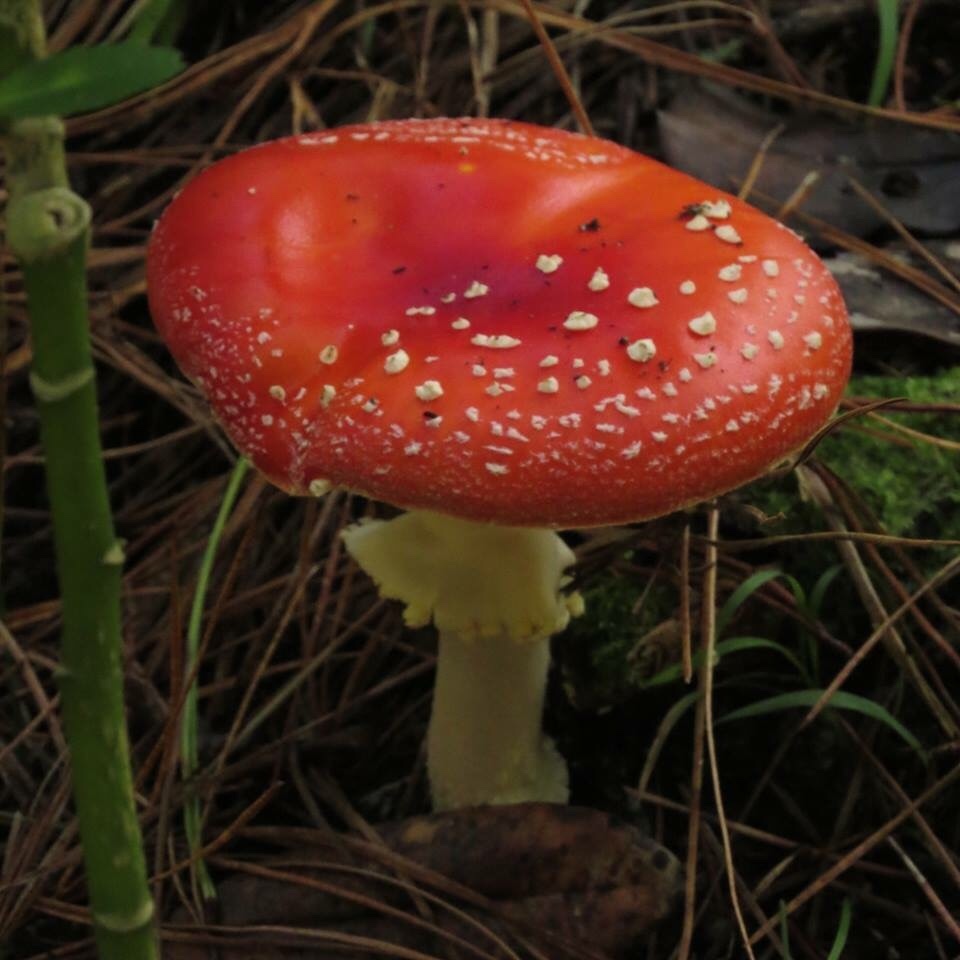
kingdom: Fungi
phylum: Basidiomycota
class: Agaricomycetes
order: Agaricales
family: Amanitaceae
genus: Amanita
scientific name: Amanita muscaria
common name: Fly agaric
